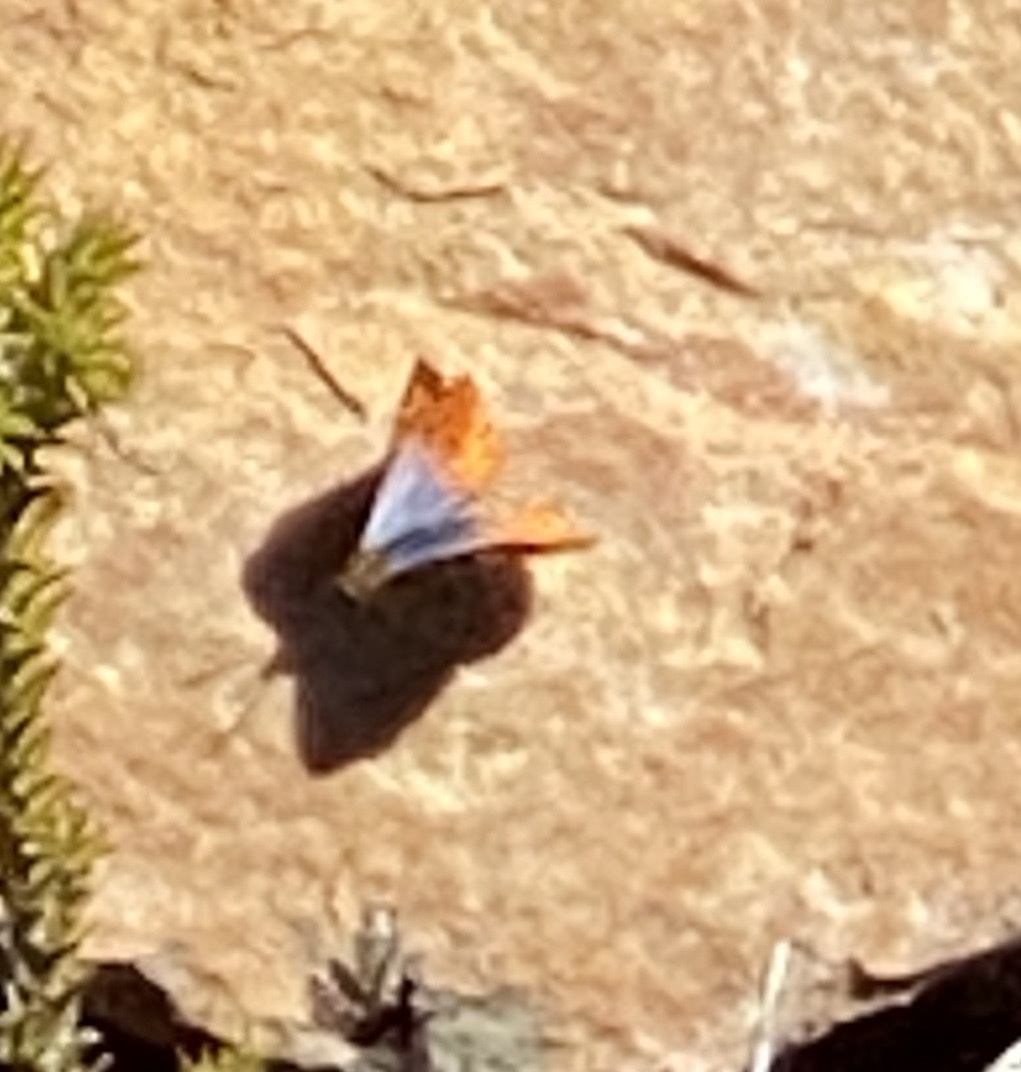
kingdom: Animalia
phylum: Arthropoda
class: Insecta
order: Lepidoptera
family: Lycaenidae
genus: Poecilmitis
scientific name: Poecilmitis plutus
